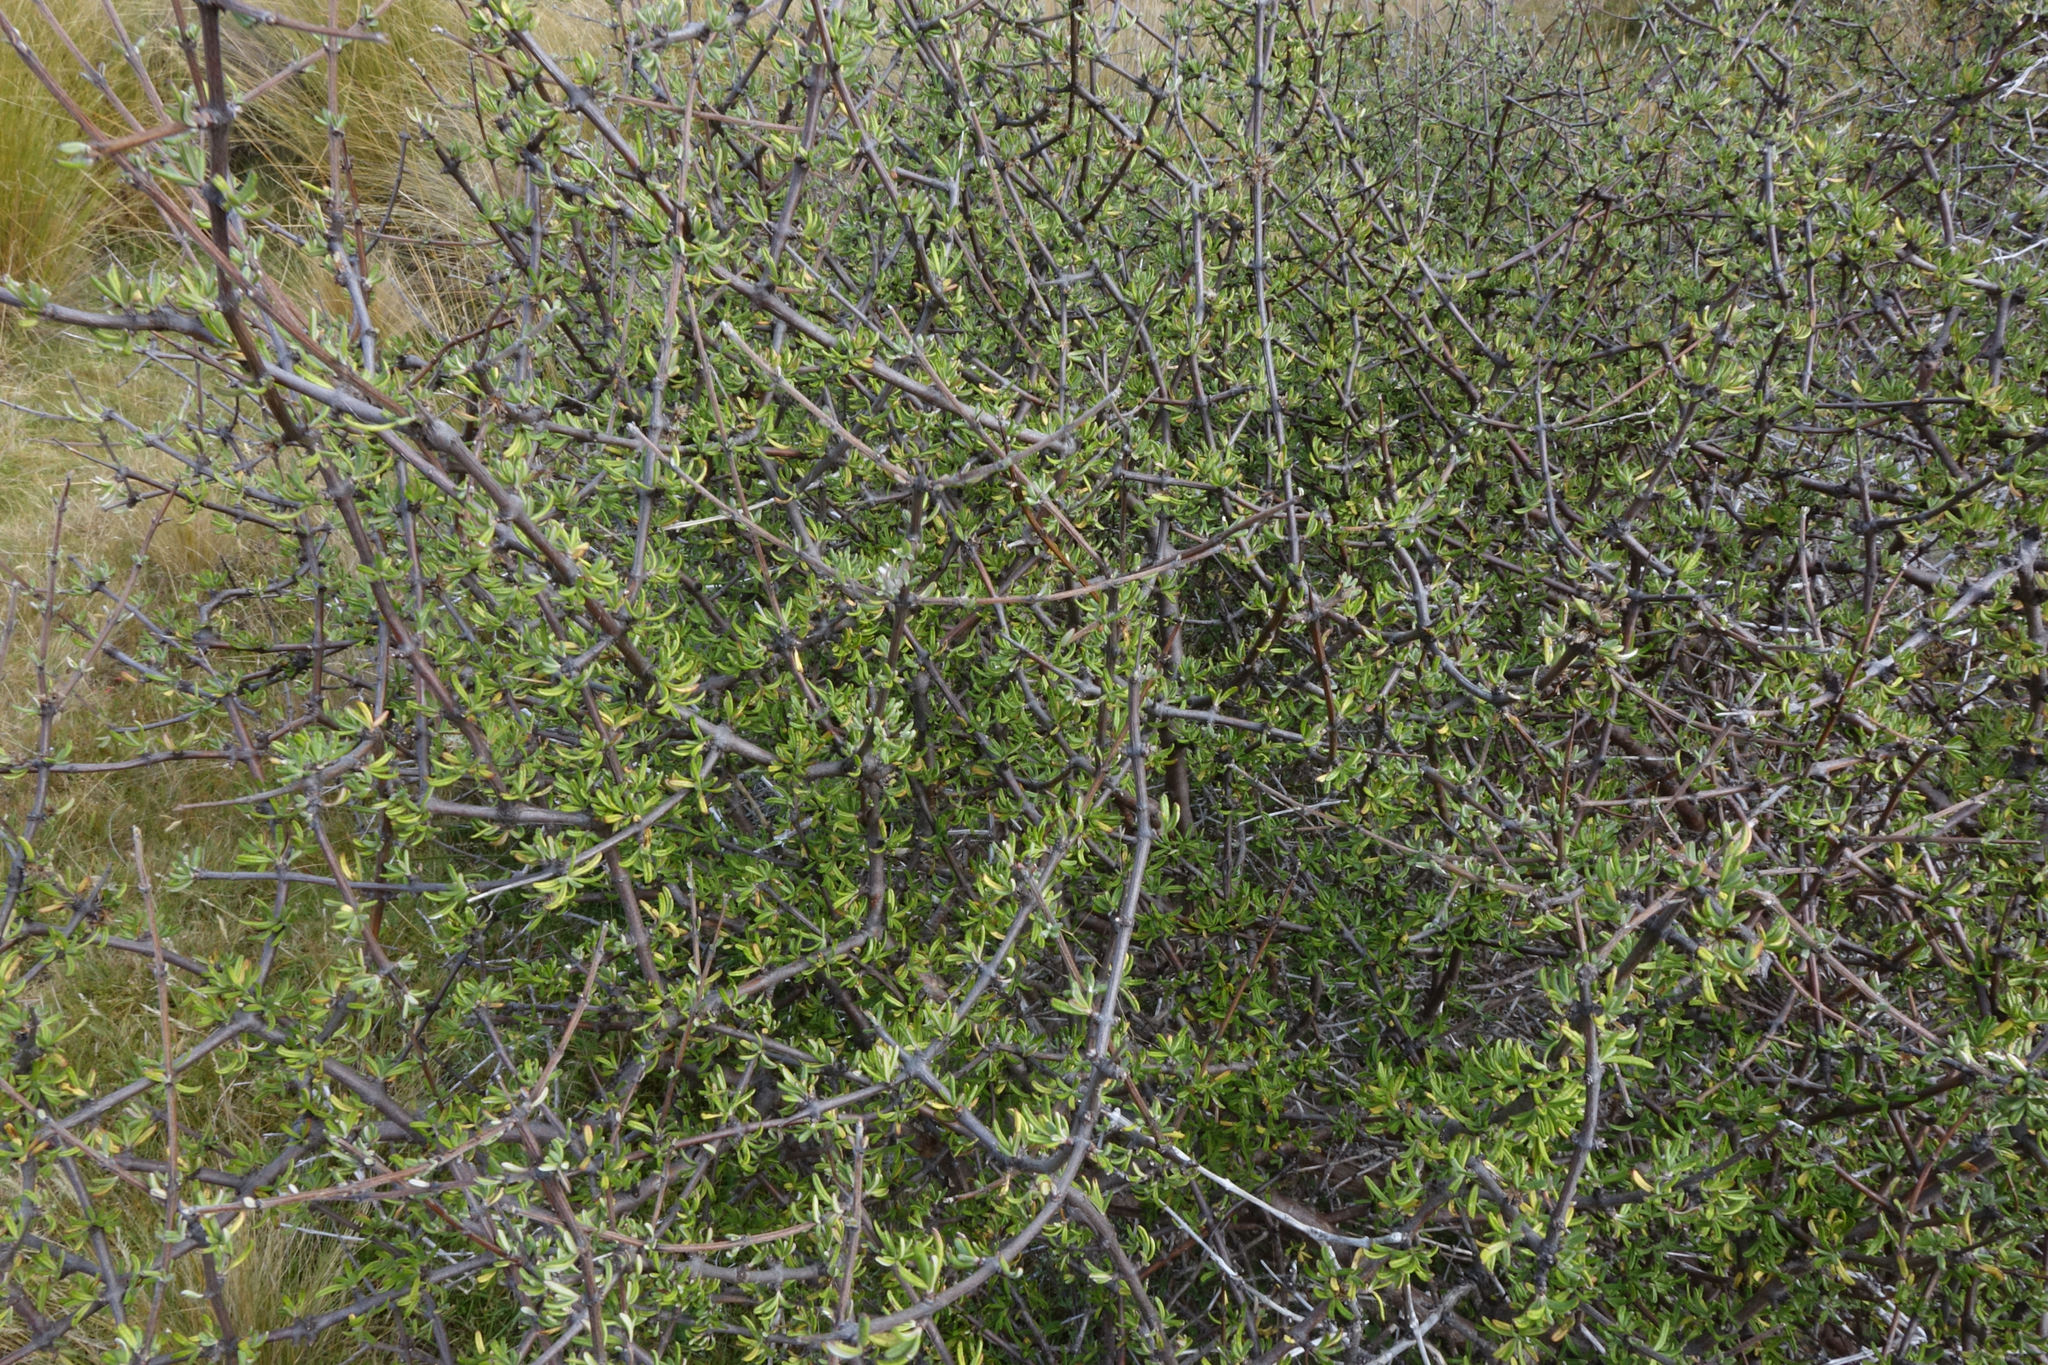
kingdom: Plantae
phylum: Tracheophyta
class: Magnoliopsida
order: Asterales
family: Asteraceae
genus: Olearia
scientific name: Olearia bullata
